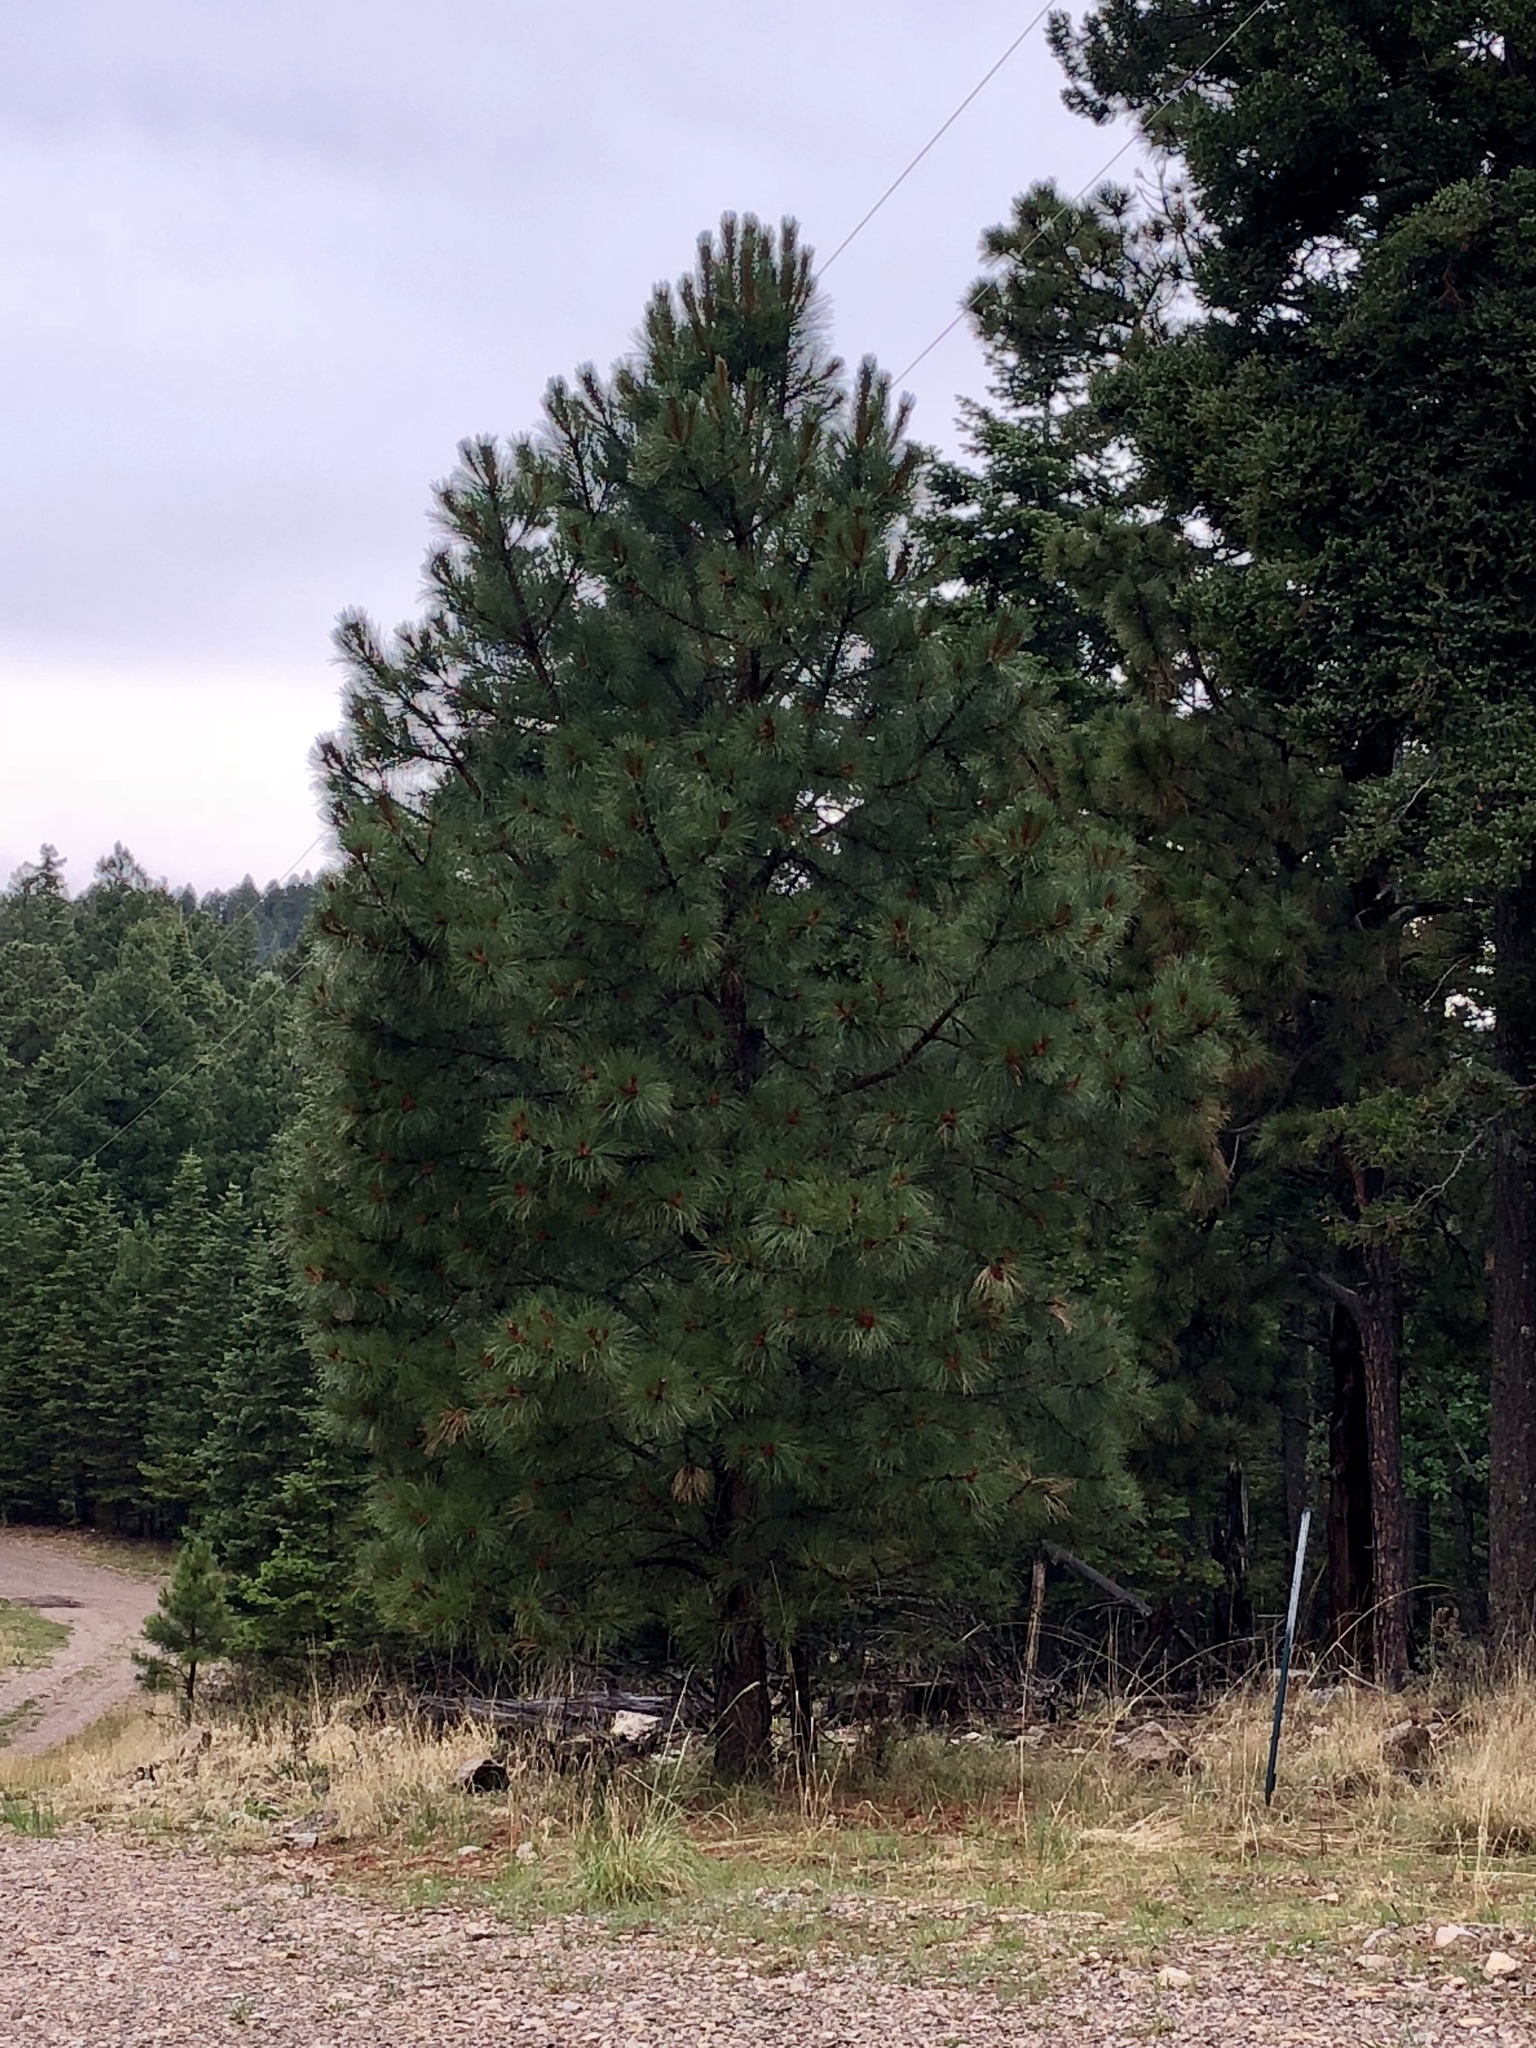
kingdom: Plantae
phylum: Tracheophyta
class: Pinopsida
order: Pinales
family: Pinaceae
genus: Pinus
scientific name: Pinus ponderosa
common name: Western yellow-pine
